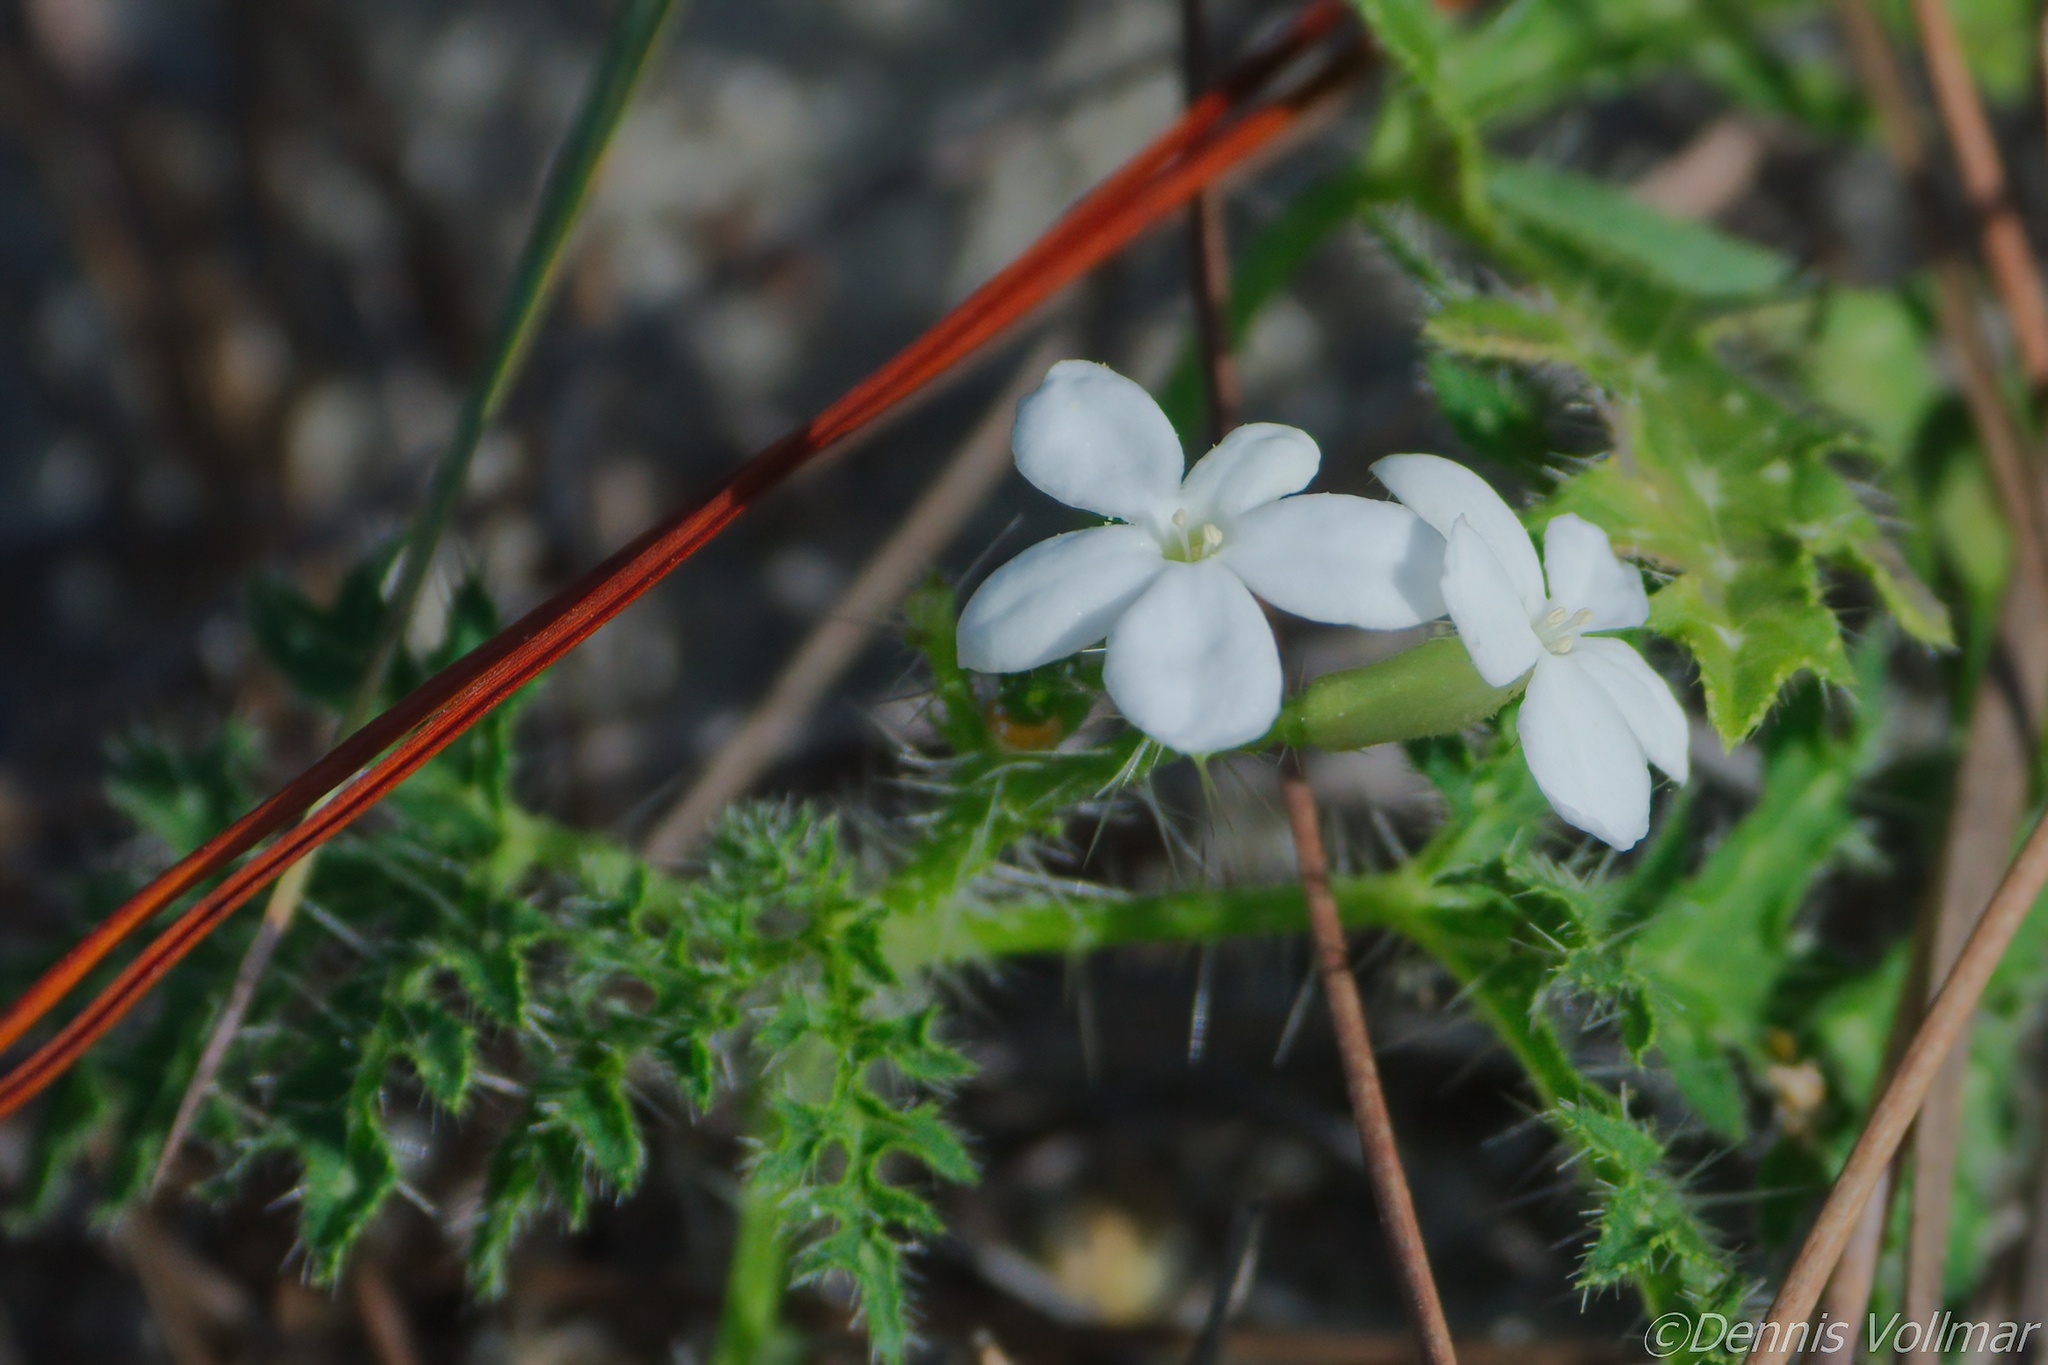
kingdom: Plantae
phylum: Tracheophyta
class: Magnoliopsida
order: Malpighiales
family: Euphorbiaceae
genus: Cnidoscolus
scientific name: Cnidoscolus stimulosus
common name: Bull-nettle
